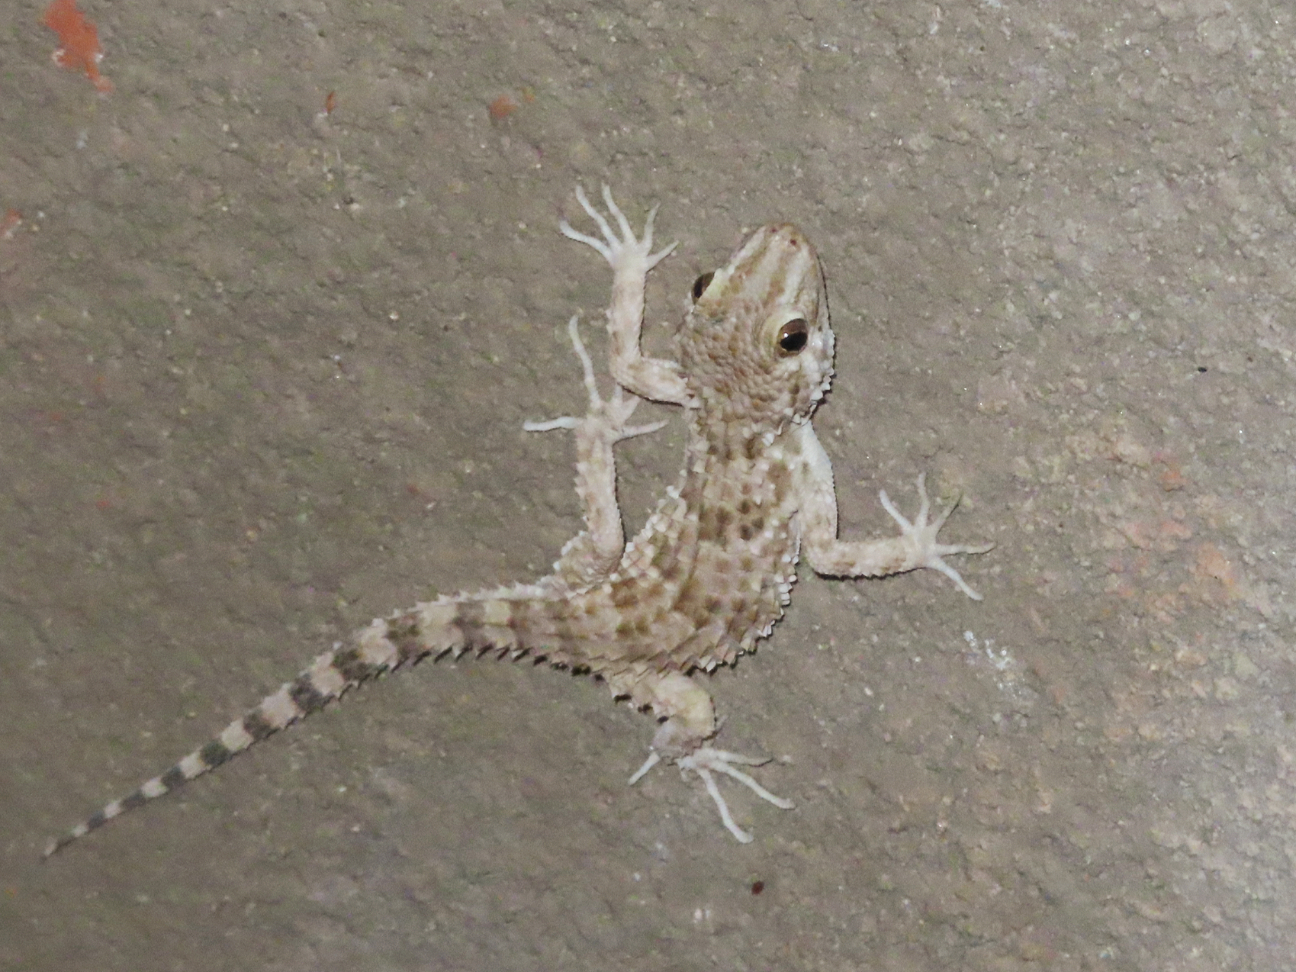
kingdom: Animalia
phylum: Chordata
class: Squamata
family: Gekkonidae
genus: Tenuidactylus
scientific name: Tenuidactylus caspius
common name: Caspian bent-toed gecko
